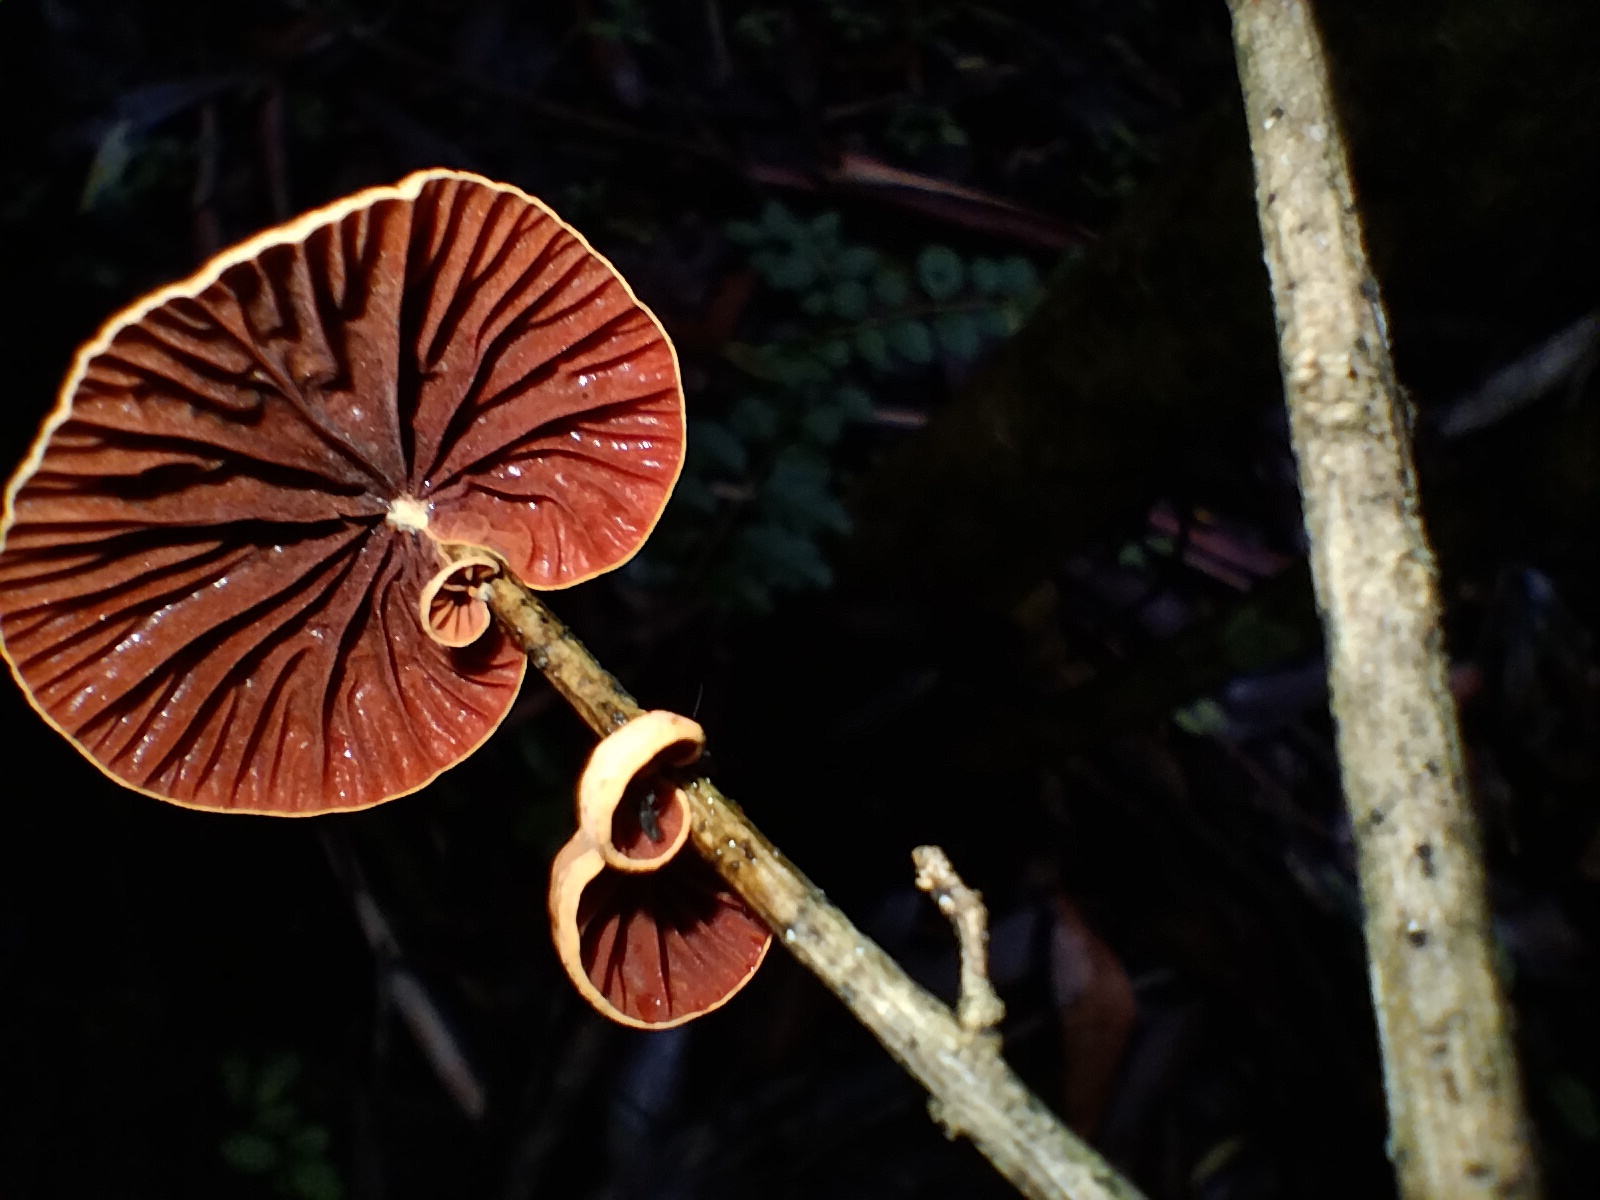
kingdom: Fungi
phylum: Basidiomycota
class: Agaricomycetes
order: Agaricales
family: Omphalotaceae
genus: Anthracophyllum
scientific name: Anthracophyllum archeri
